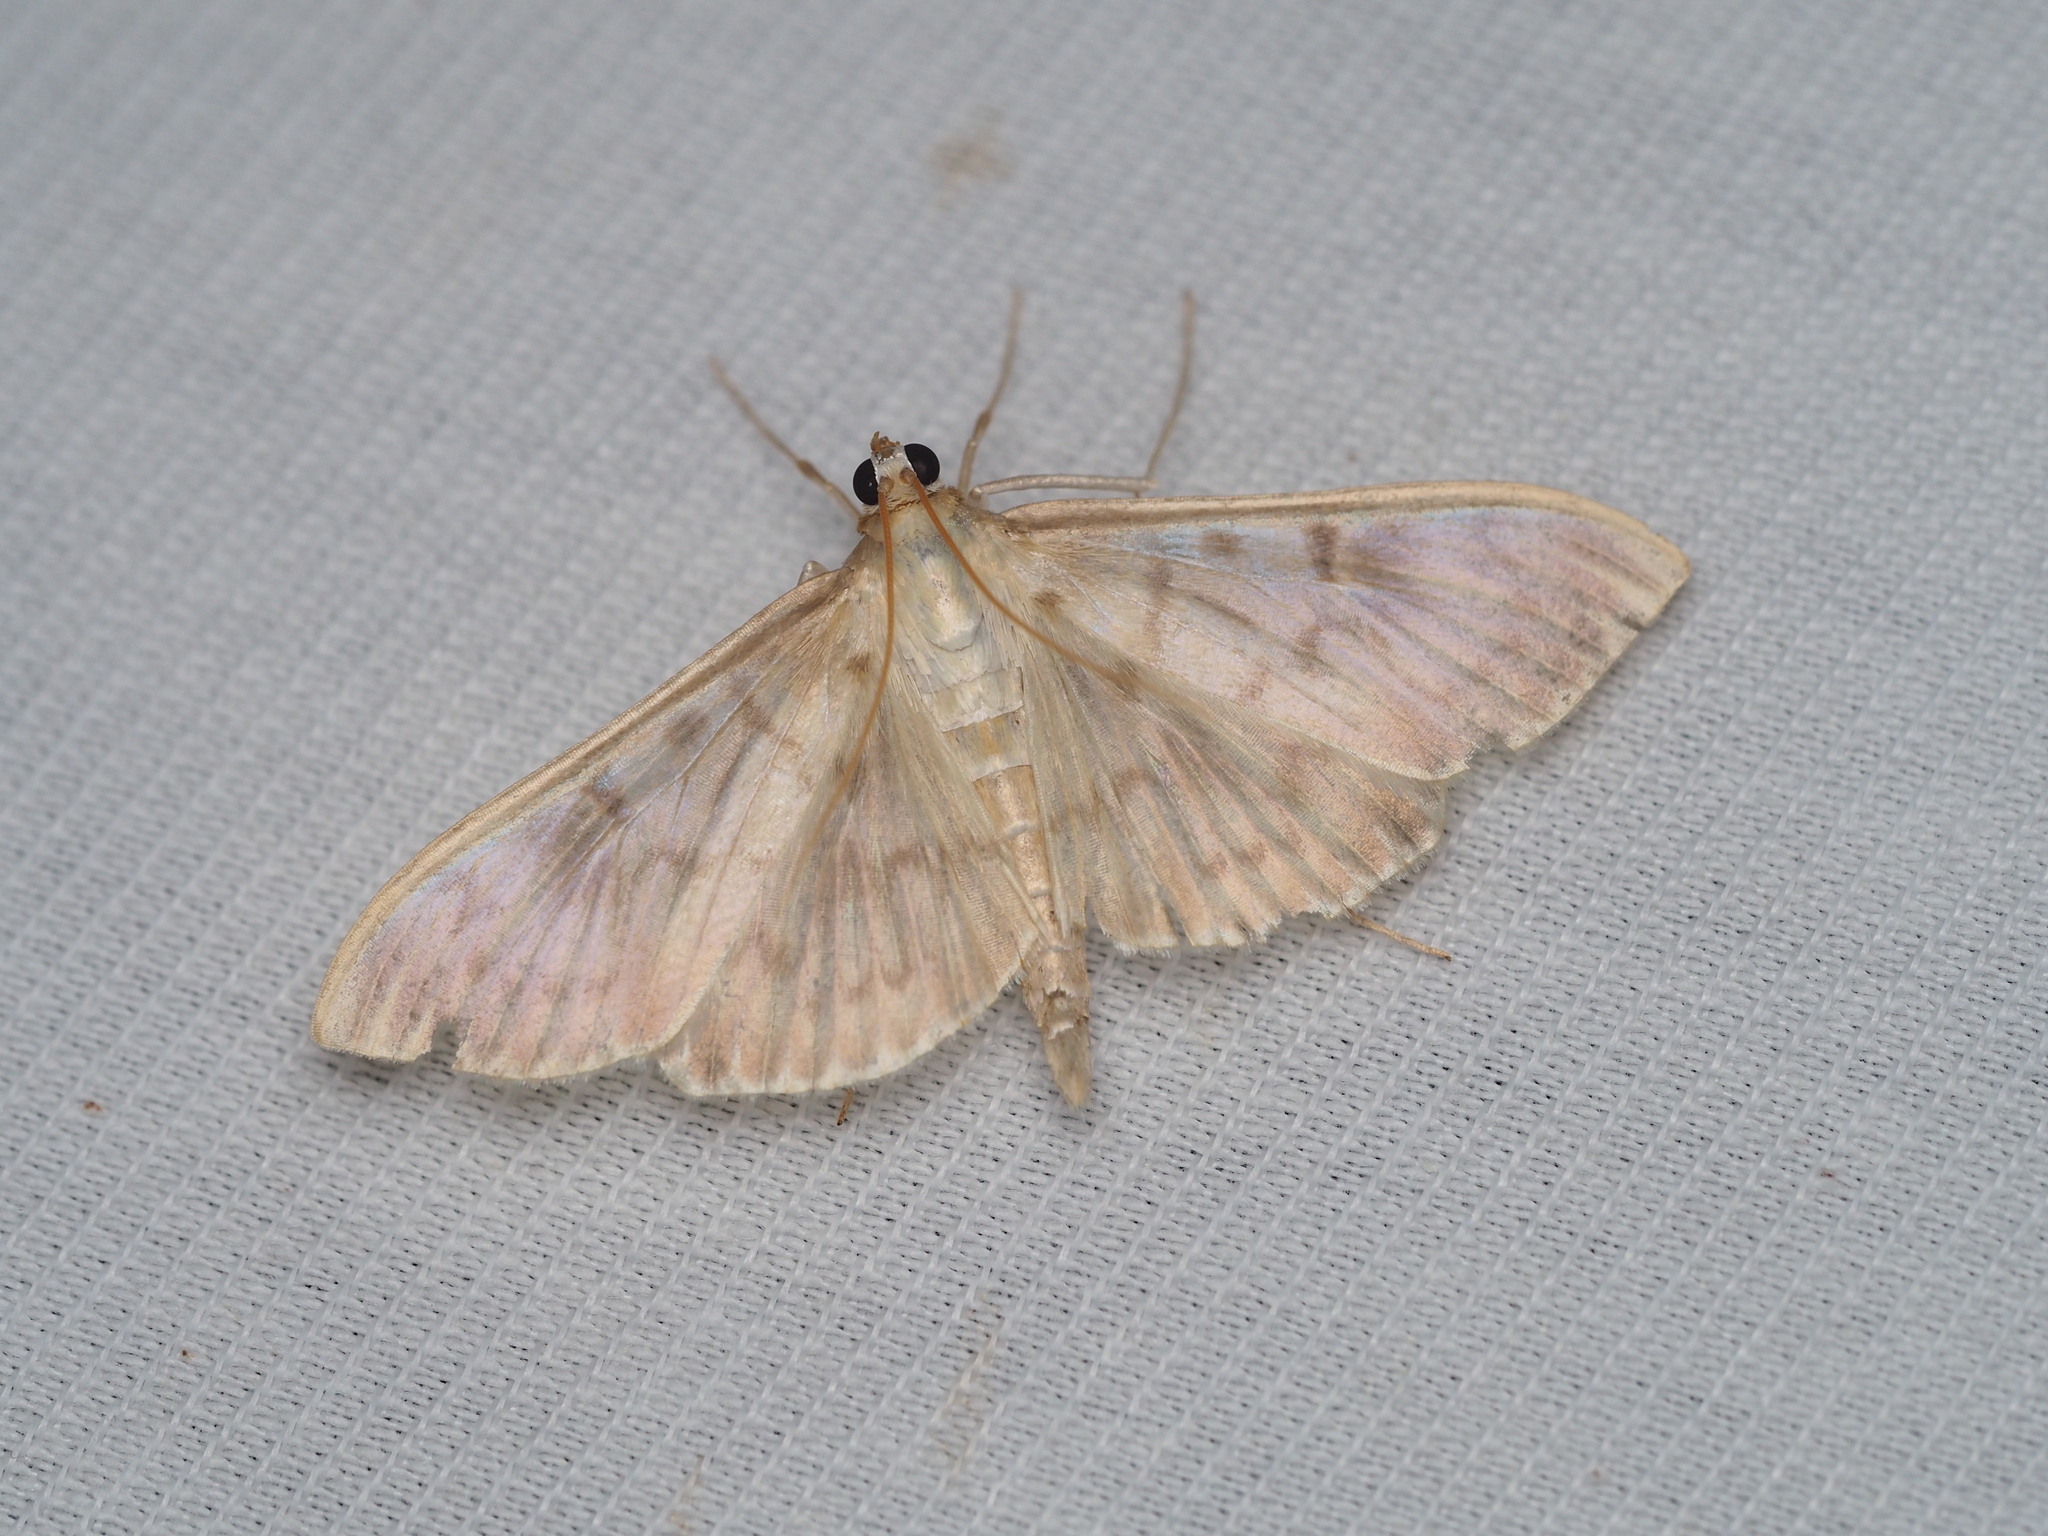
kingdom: Animalia
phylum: Arthropoda
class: Insecta
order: Lepidoptera
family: Crambidae
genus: Patania
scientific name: Patania ruralis
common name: Mother of pearl
